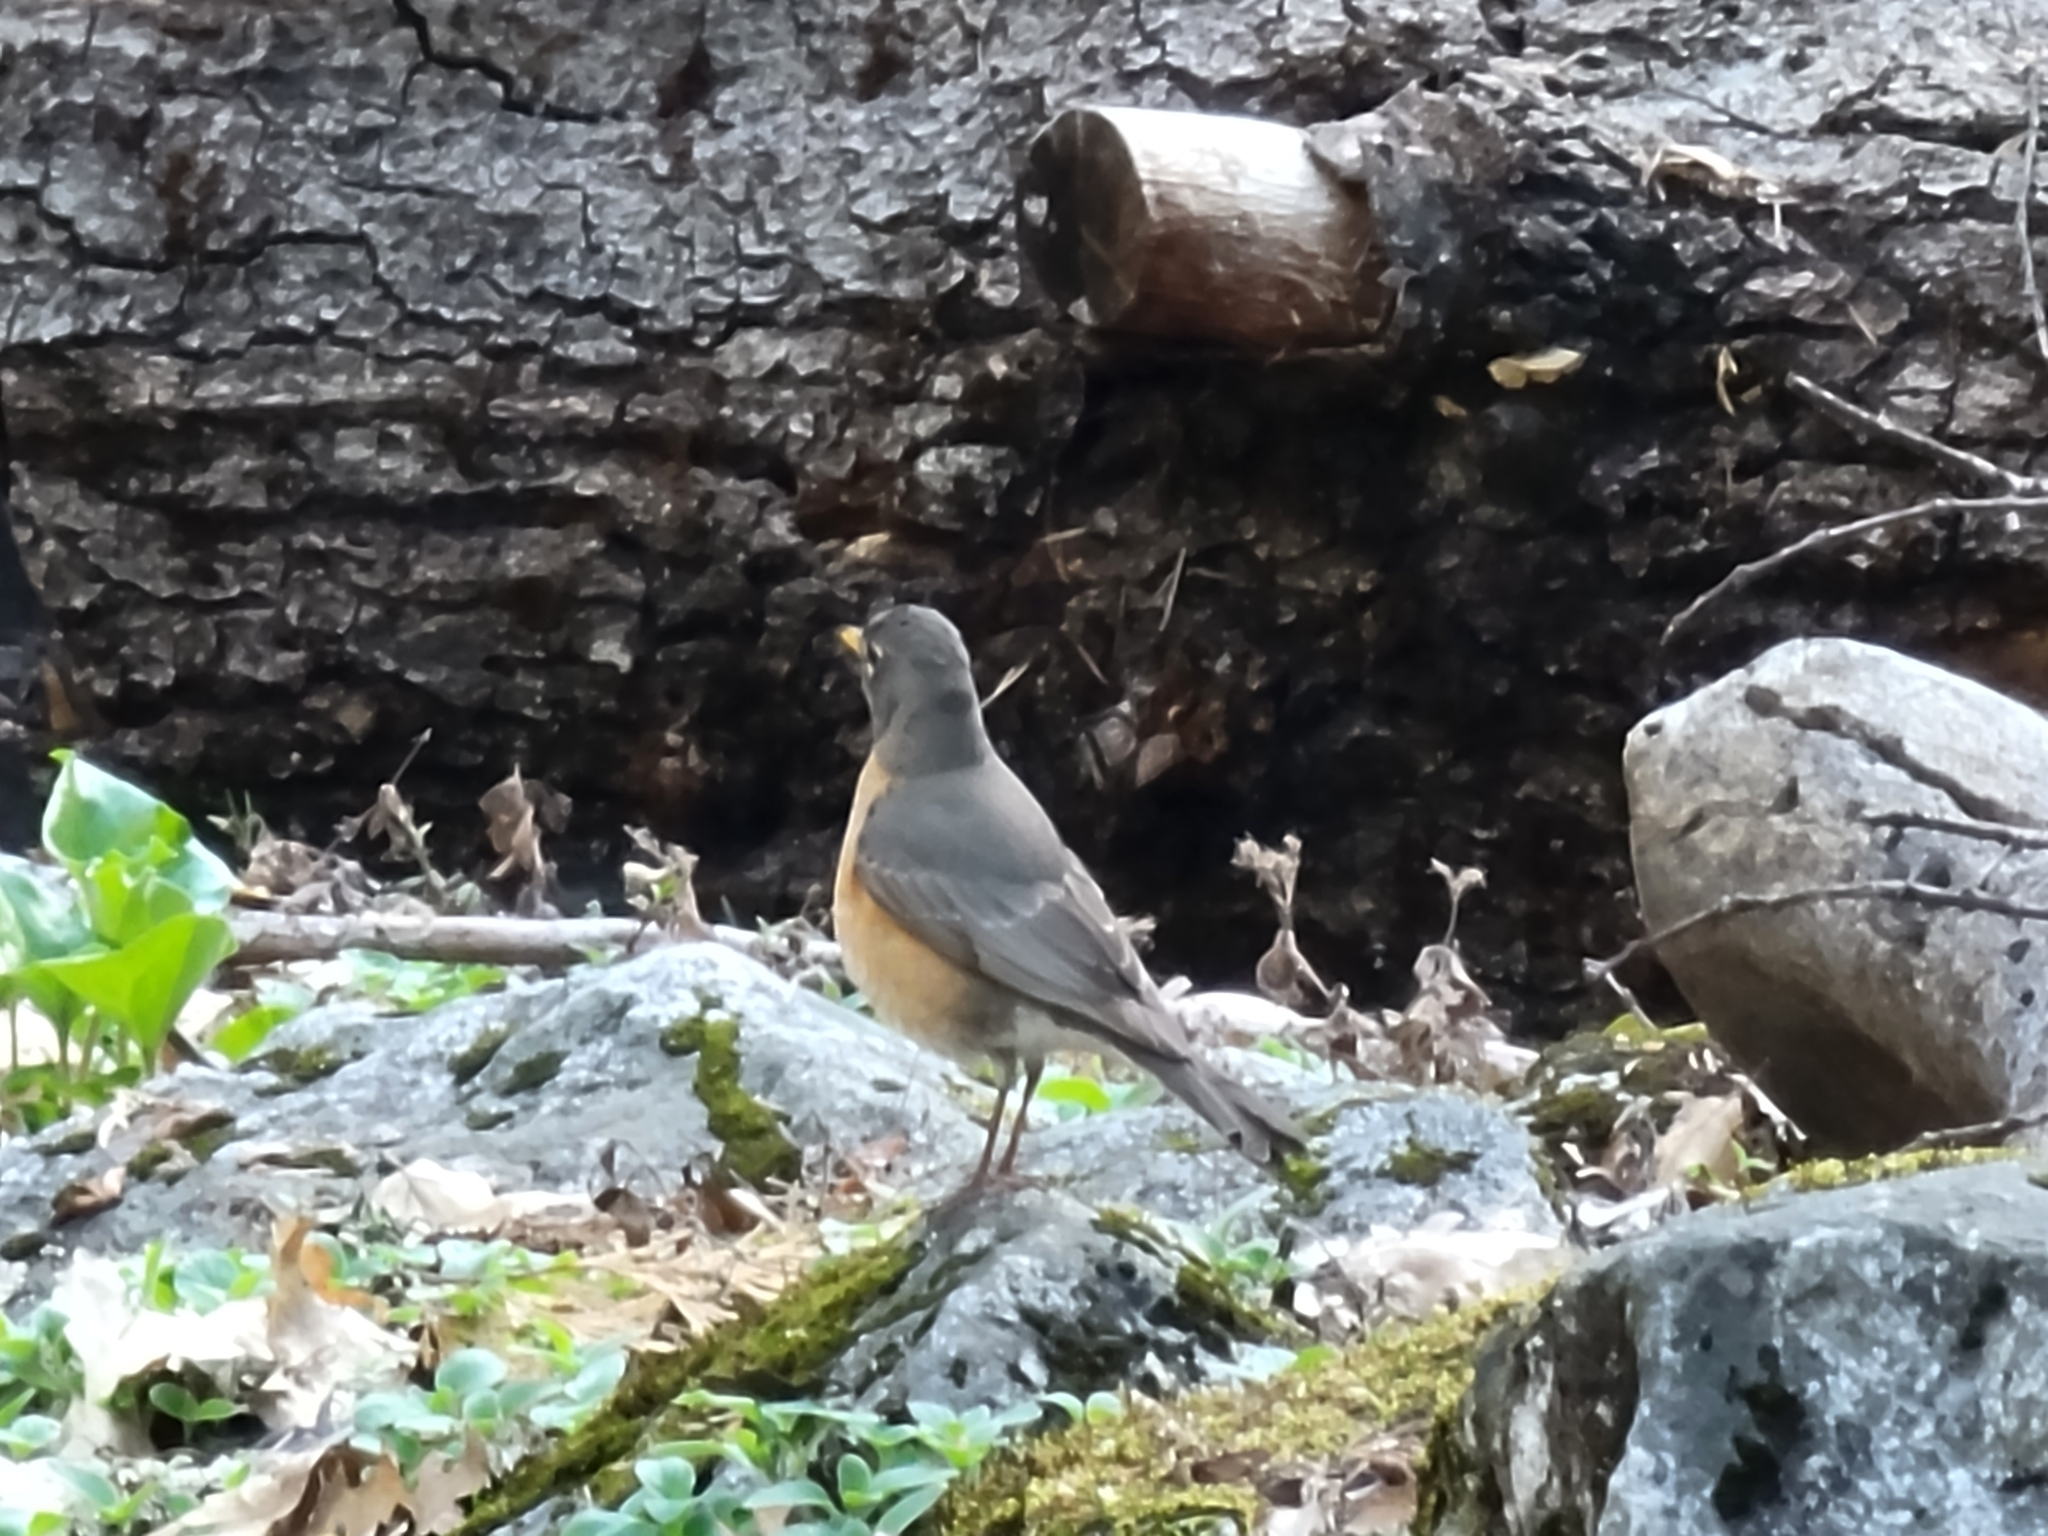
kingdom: Animalia
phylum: Chordata
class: Aves
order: Passeriformes
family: Turdidae
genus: Turdus
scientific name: Turdus migratorius
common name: American robin
